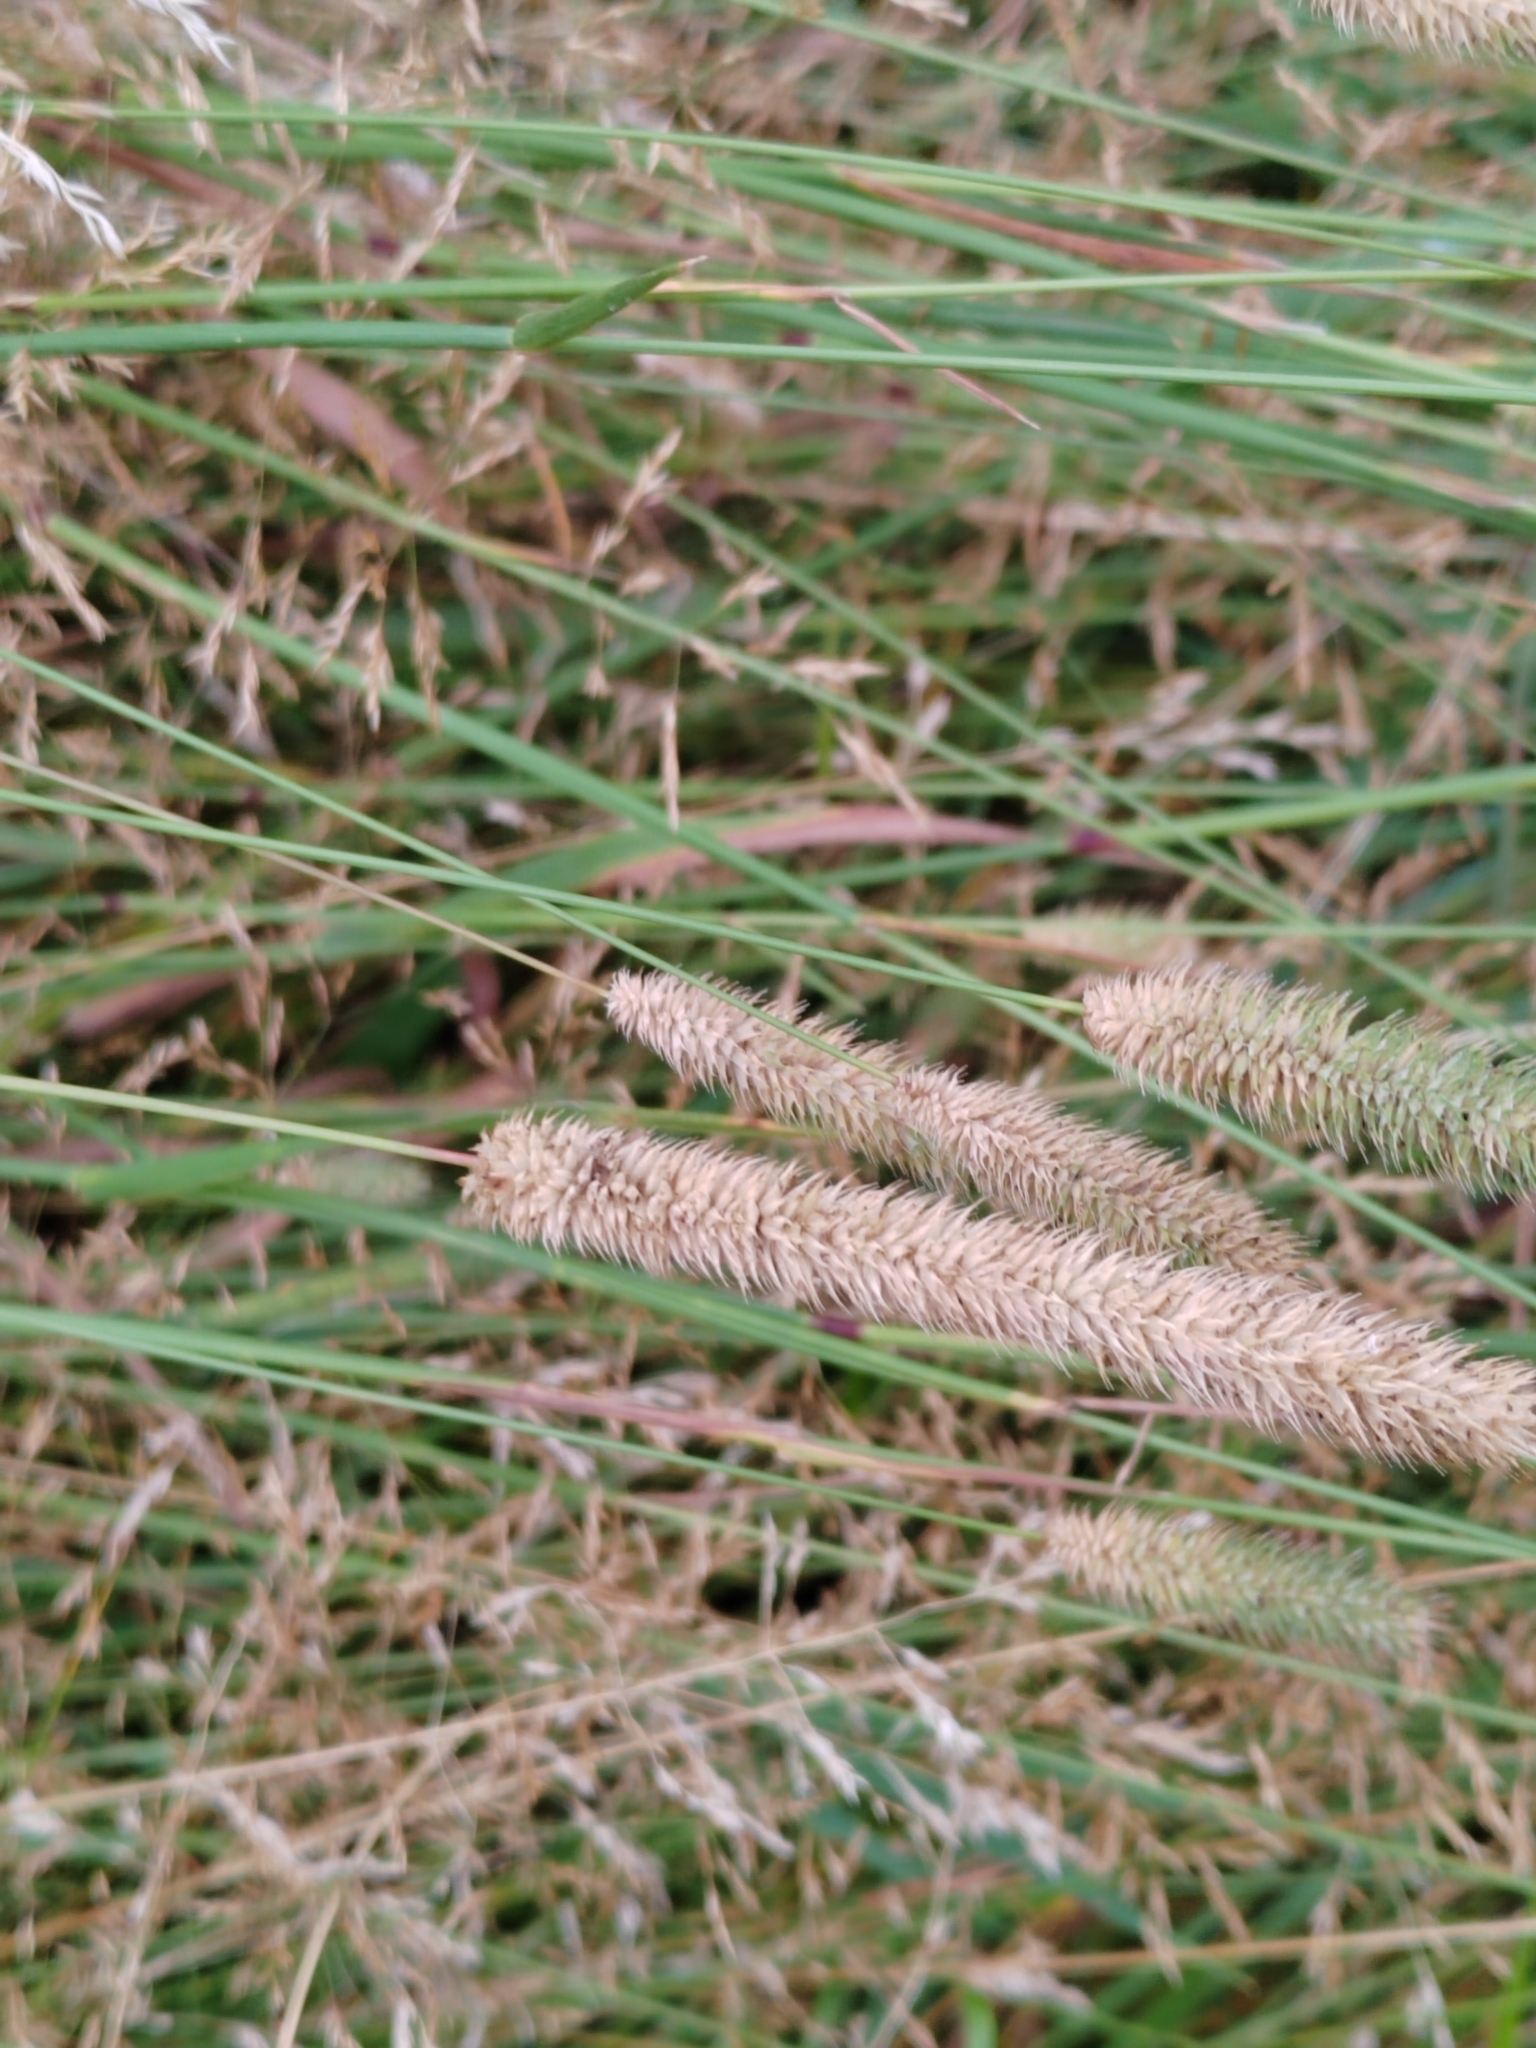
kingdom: Plantae
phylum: Tracheophyta
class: Liliopsida
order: Poales
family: Poaceae
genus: Phleum
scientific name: Phleum pratense
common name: Timothy grass
